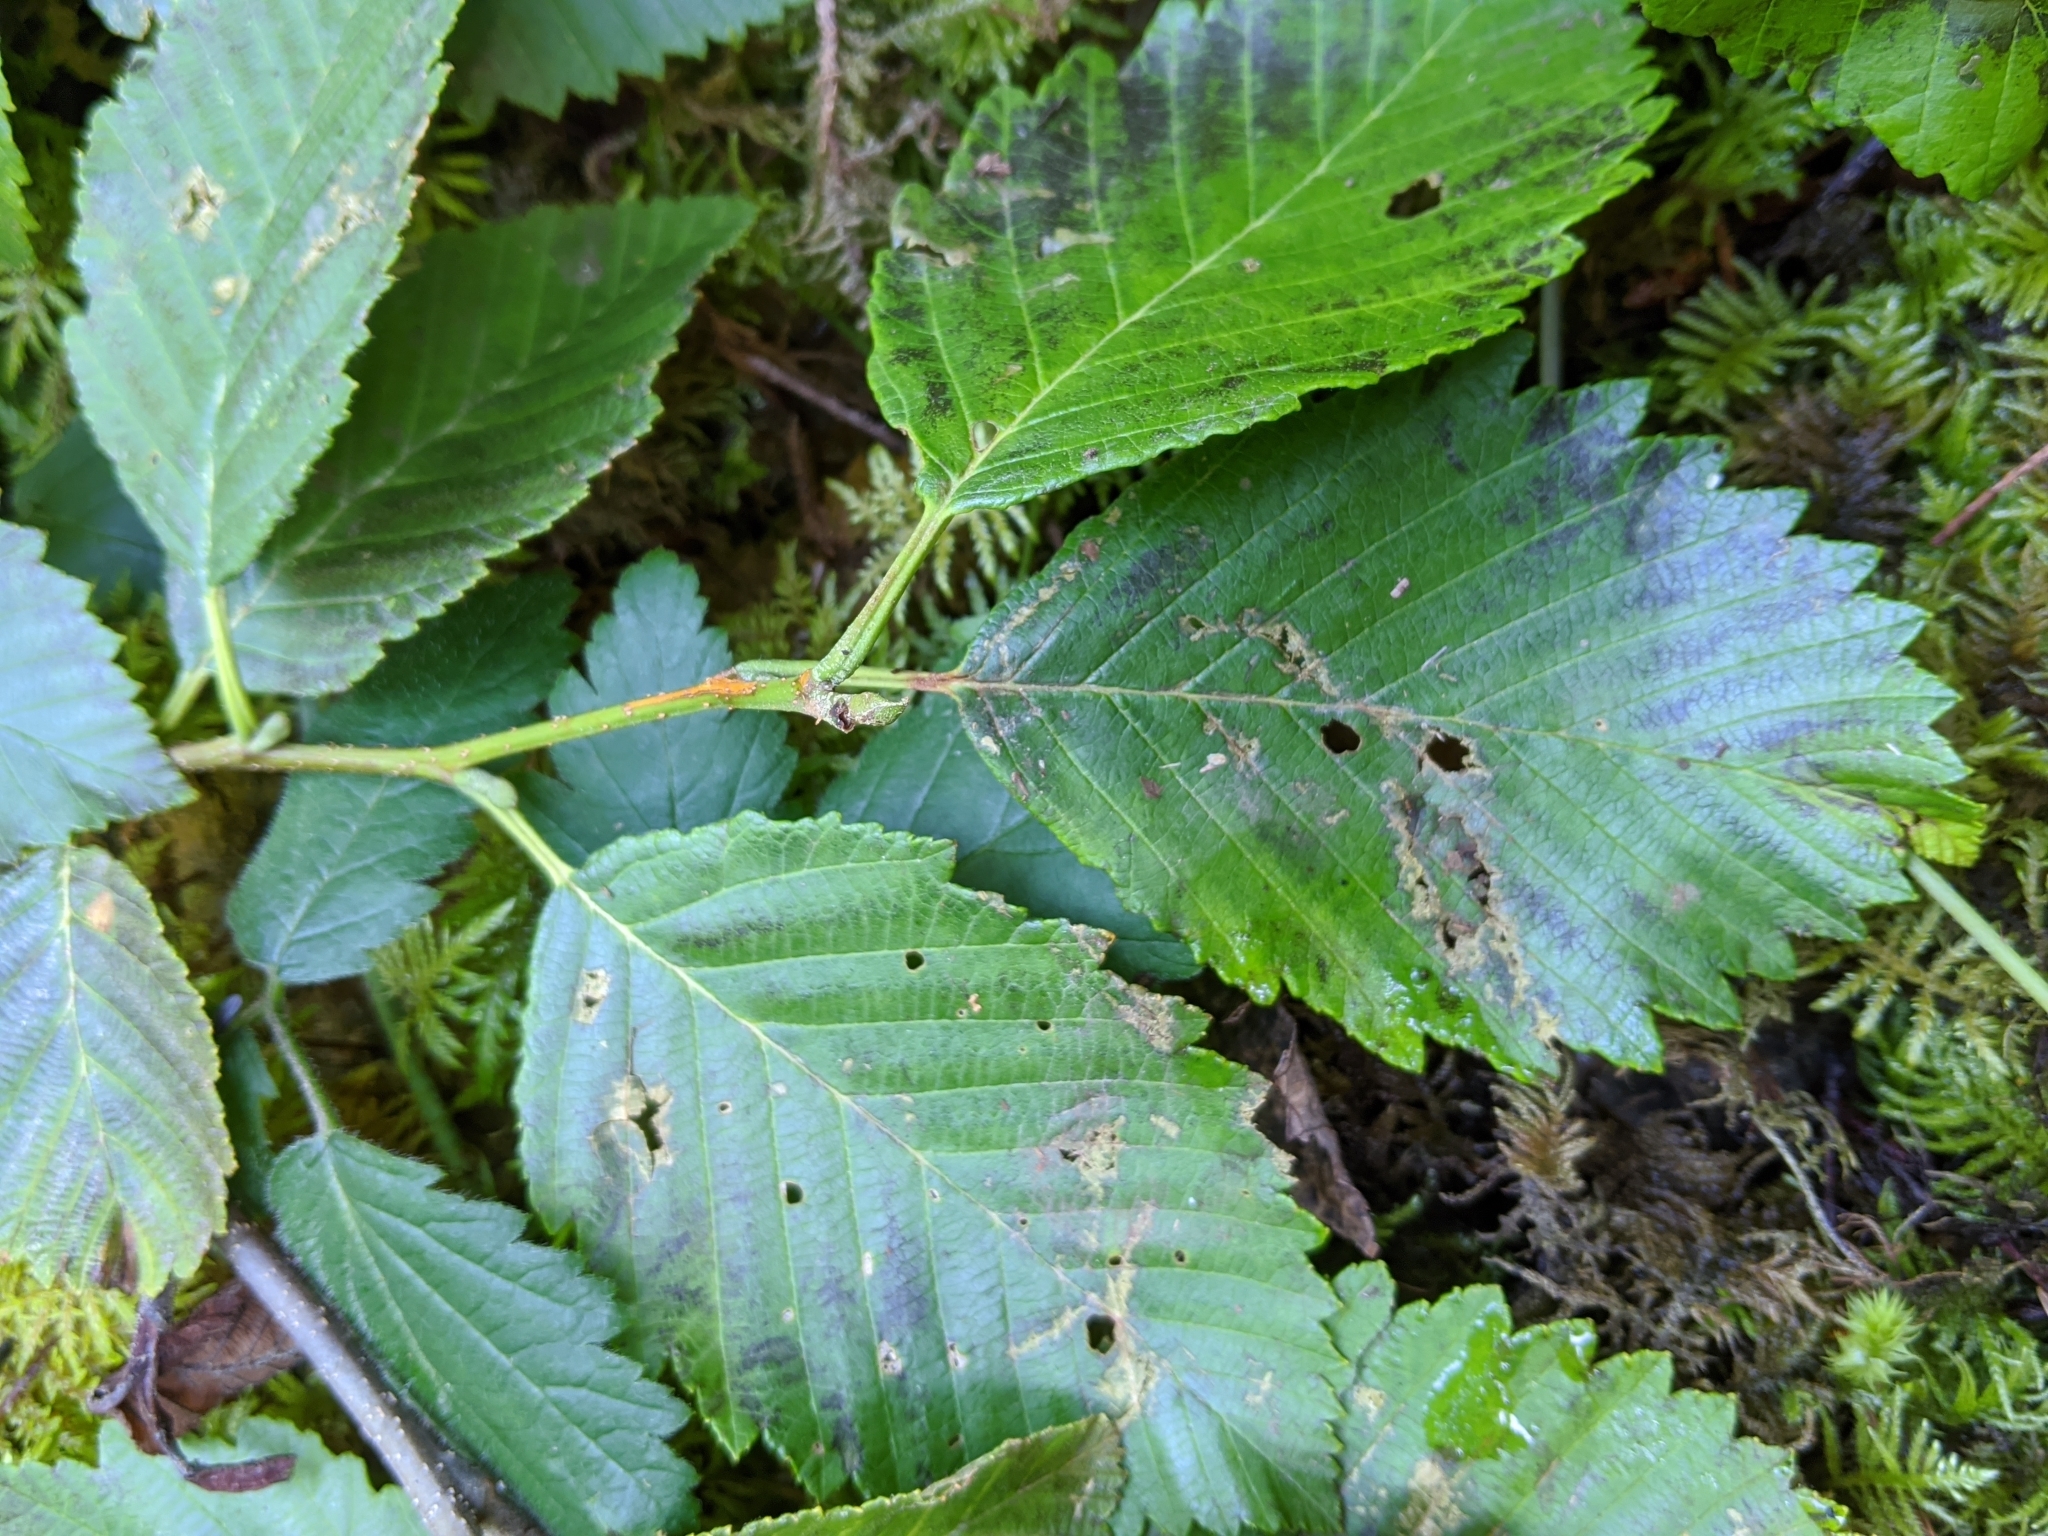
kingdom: Plantae
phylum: Tracheophyta
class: Magnoliopsida
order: Fagales
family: Betulaceae
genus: Alnus
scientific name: Alnus rubra
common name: Red alder
